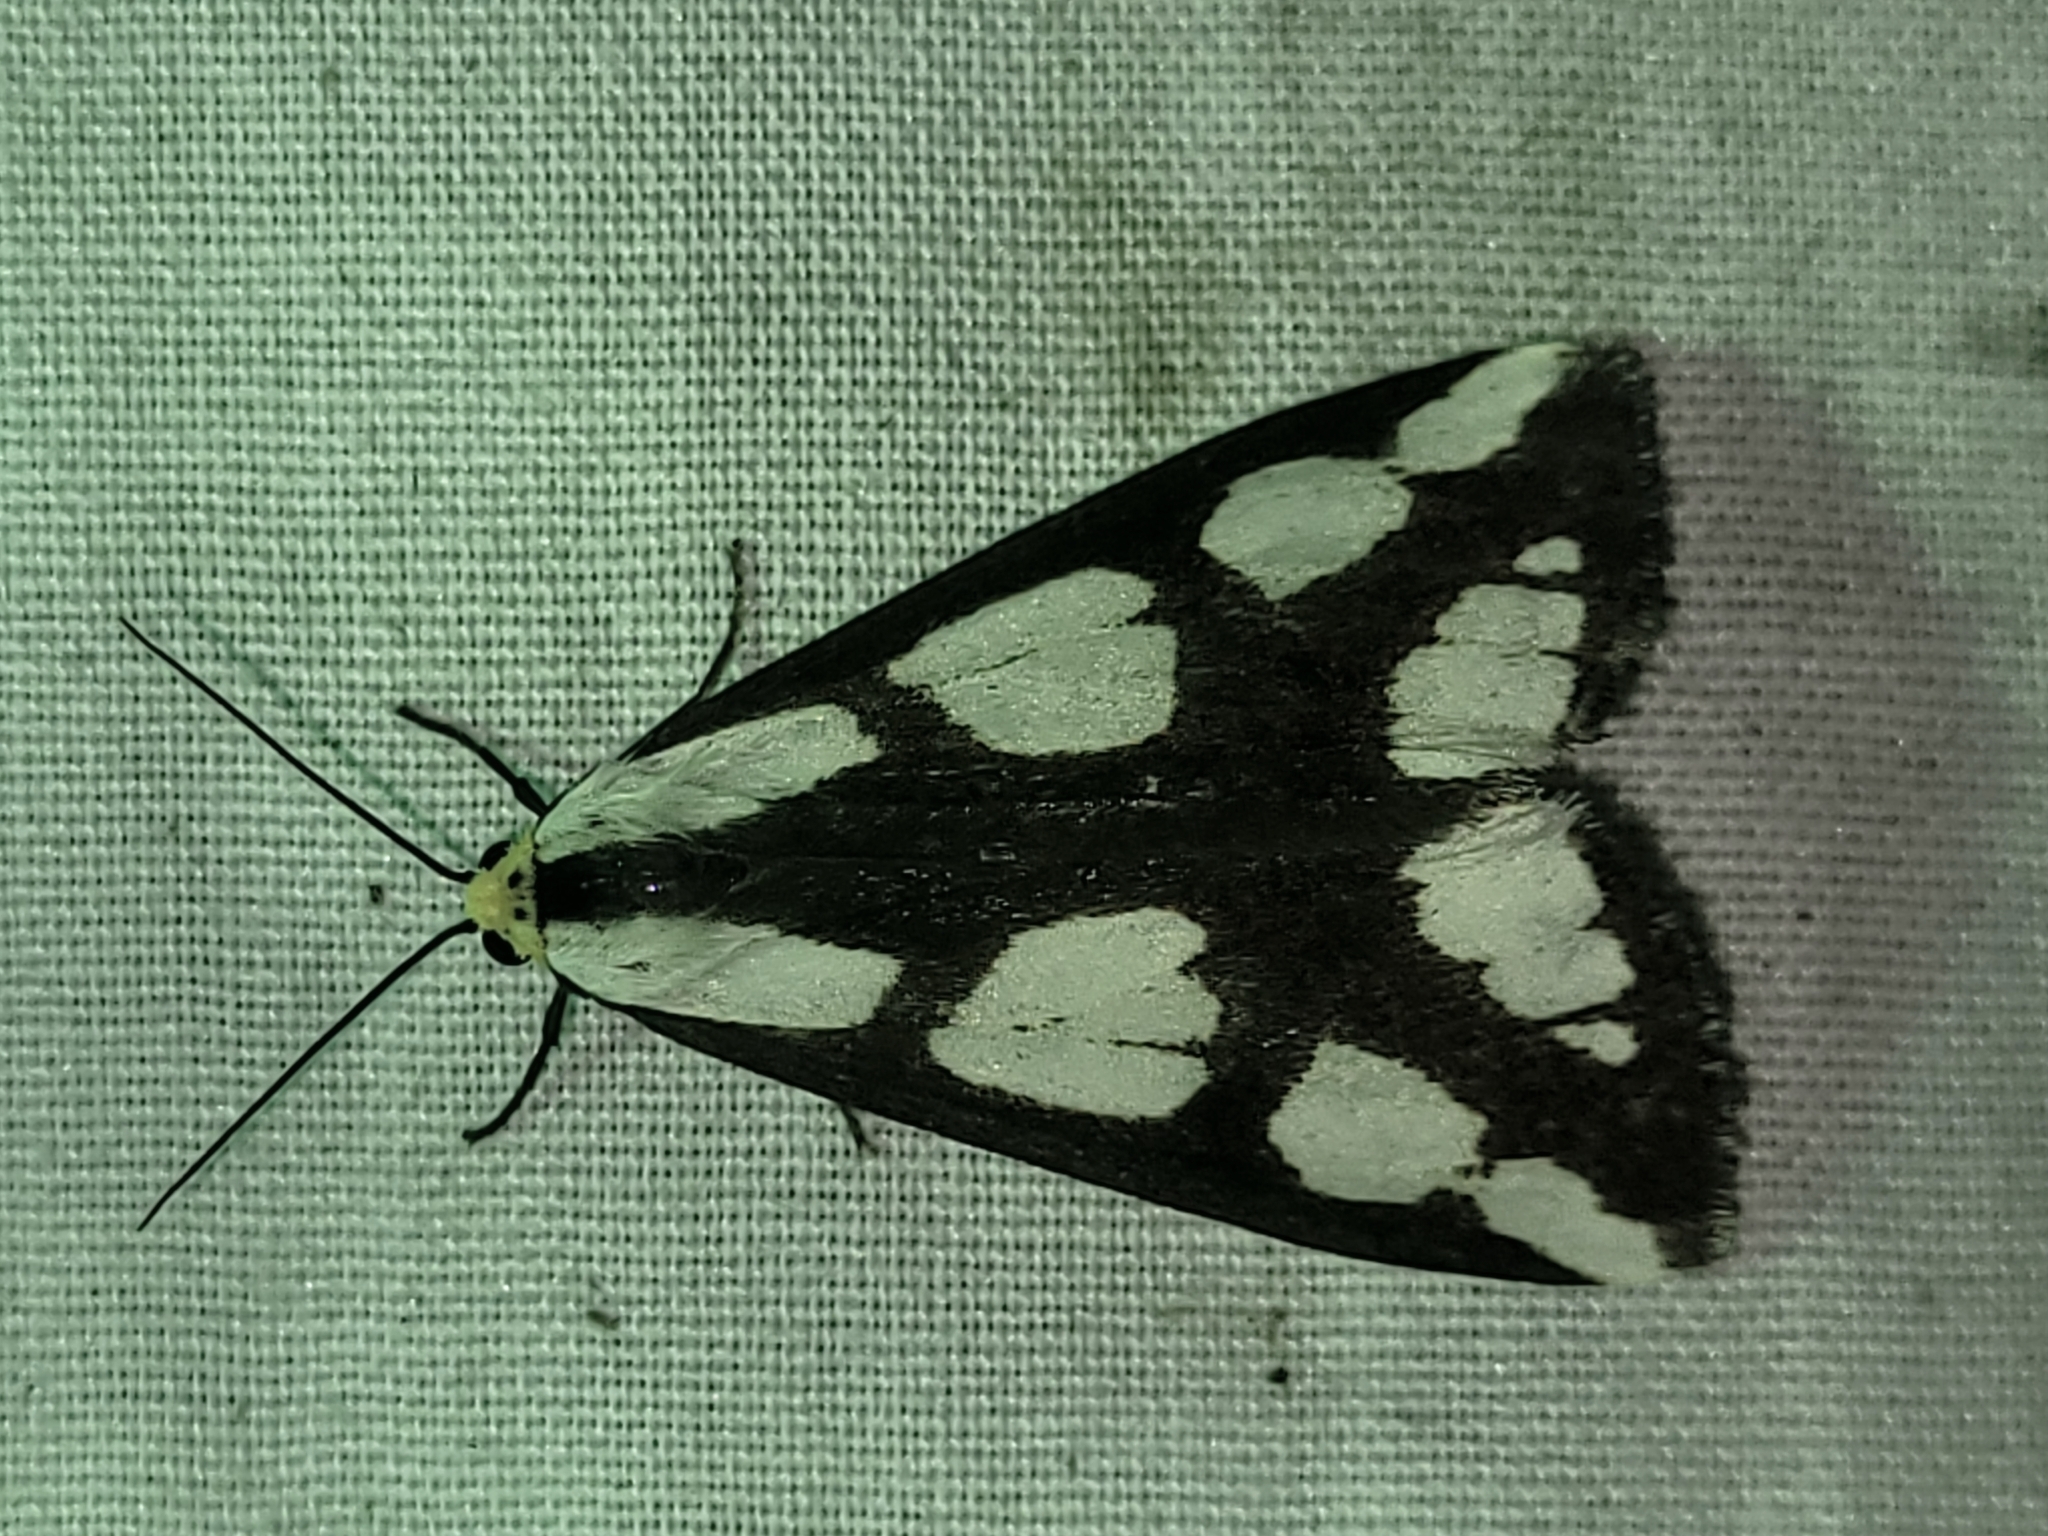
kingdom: Animalia
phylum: Arthropoda
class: Insecta
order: Lepidoptera
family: Erebidae
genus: Haploa
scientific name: Haploa lecontei
